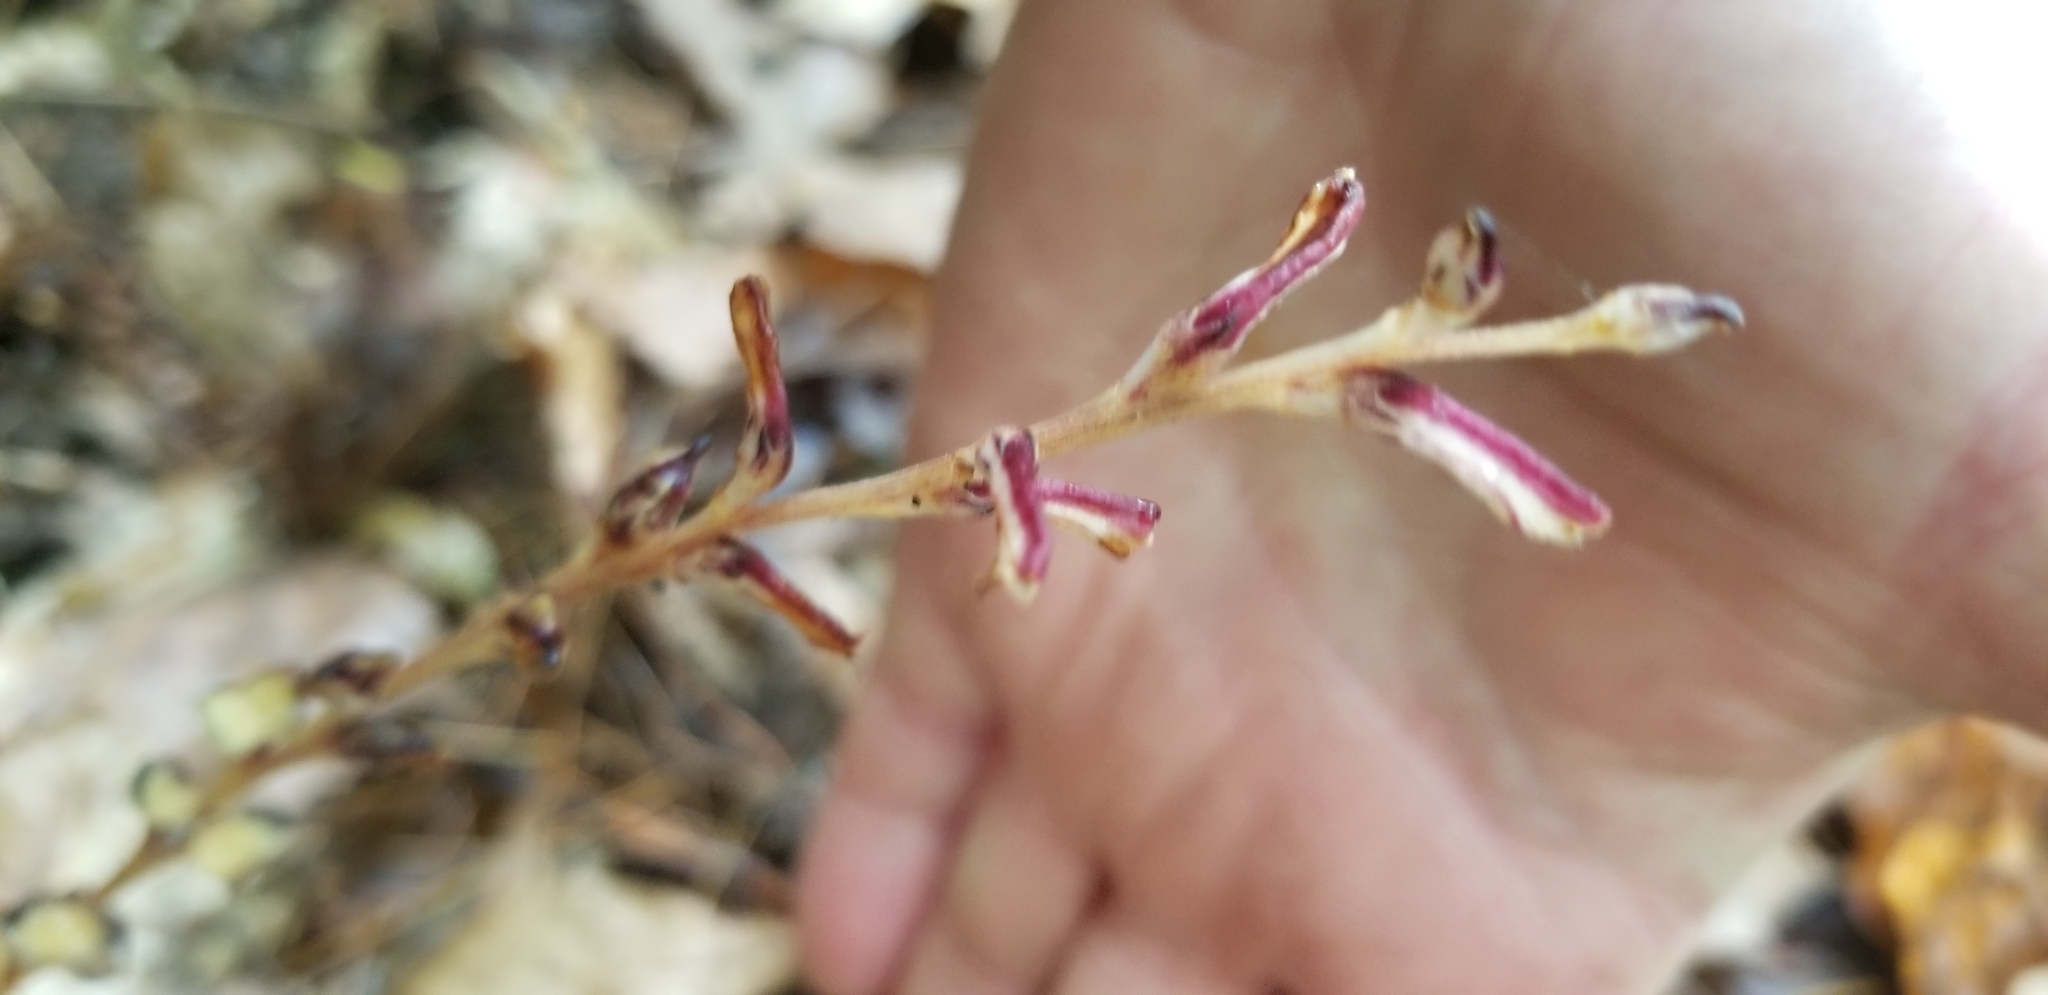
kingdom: Plantae
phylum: Tracheophyta
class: Magnoliopsida
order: Lamiales
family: Orobanchaceae
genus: Epifagus
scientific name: Epifagus virginiana
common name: Beechdrops
